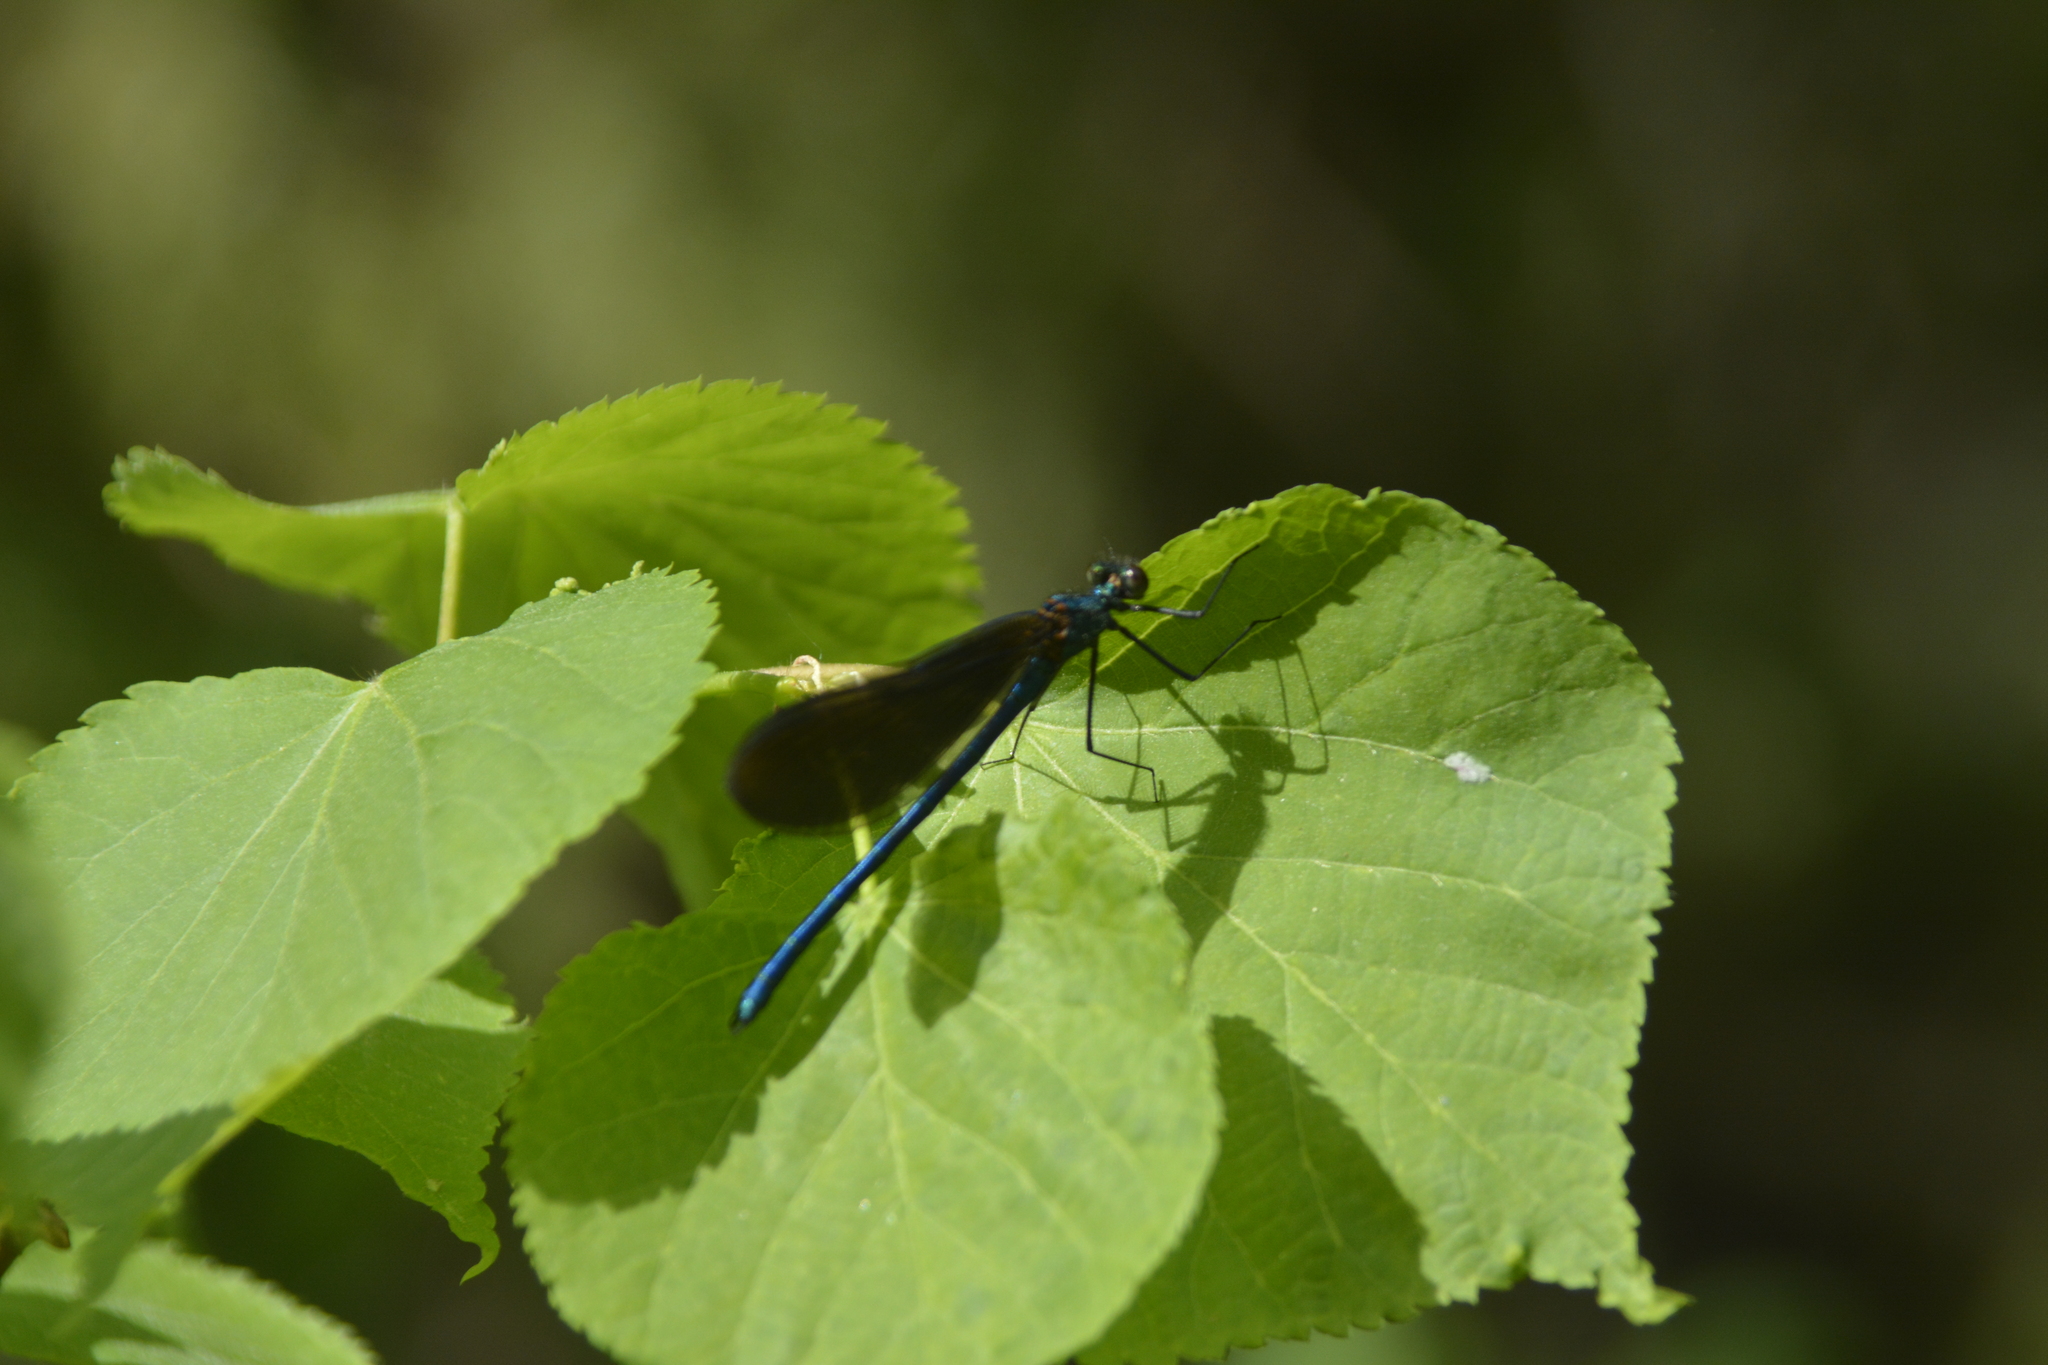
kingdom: Animalia
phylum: Arthropoda
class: Insecta
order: Odonata
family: Calopterygidae
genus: Calopteryx
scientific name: Calopteryx virgo
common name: Beautiful demoiselle
